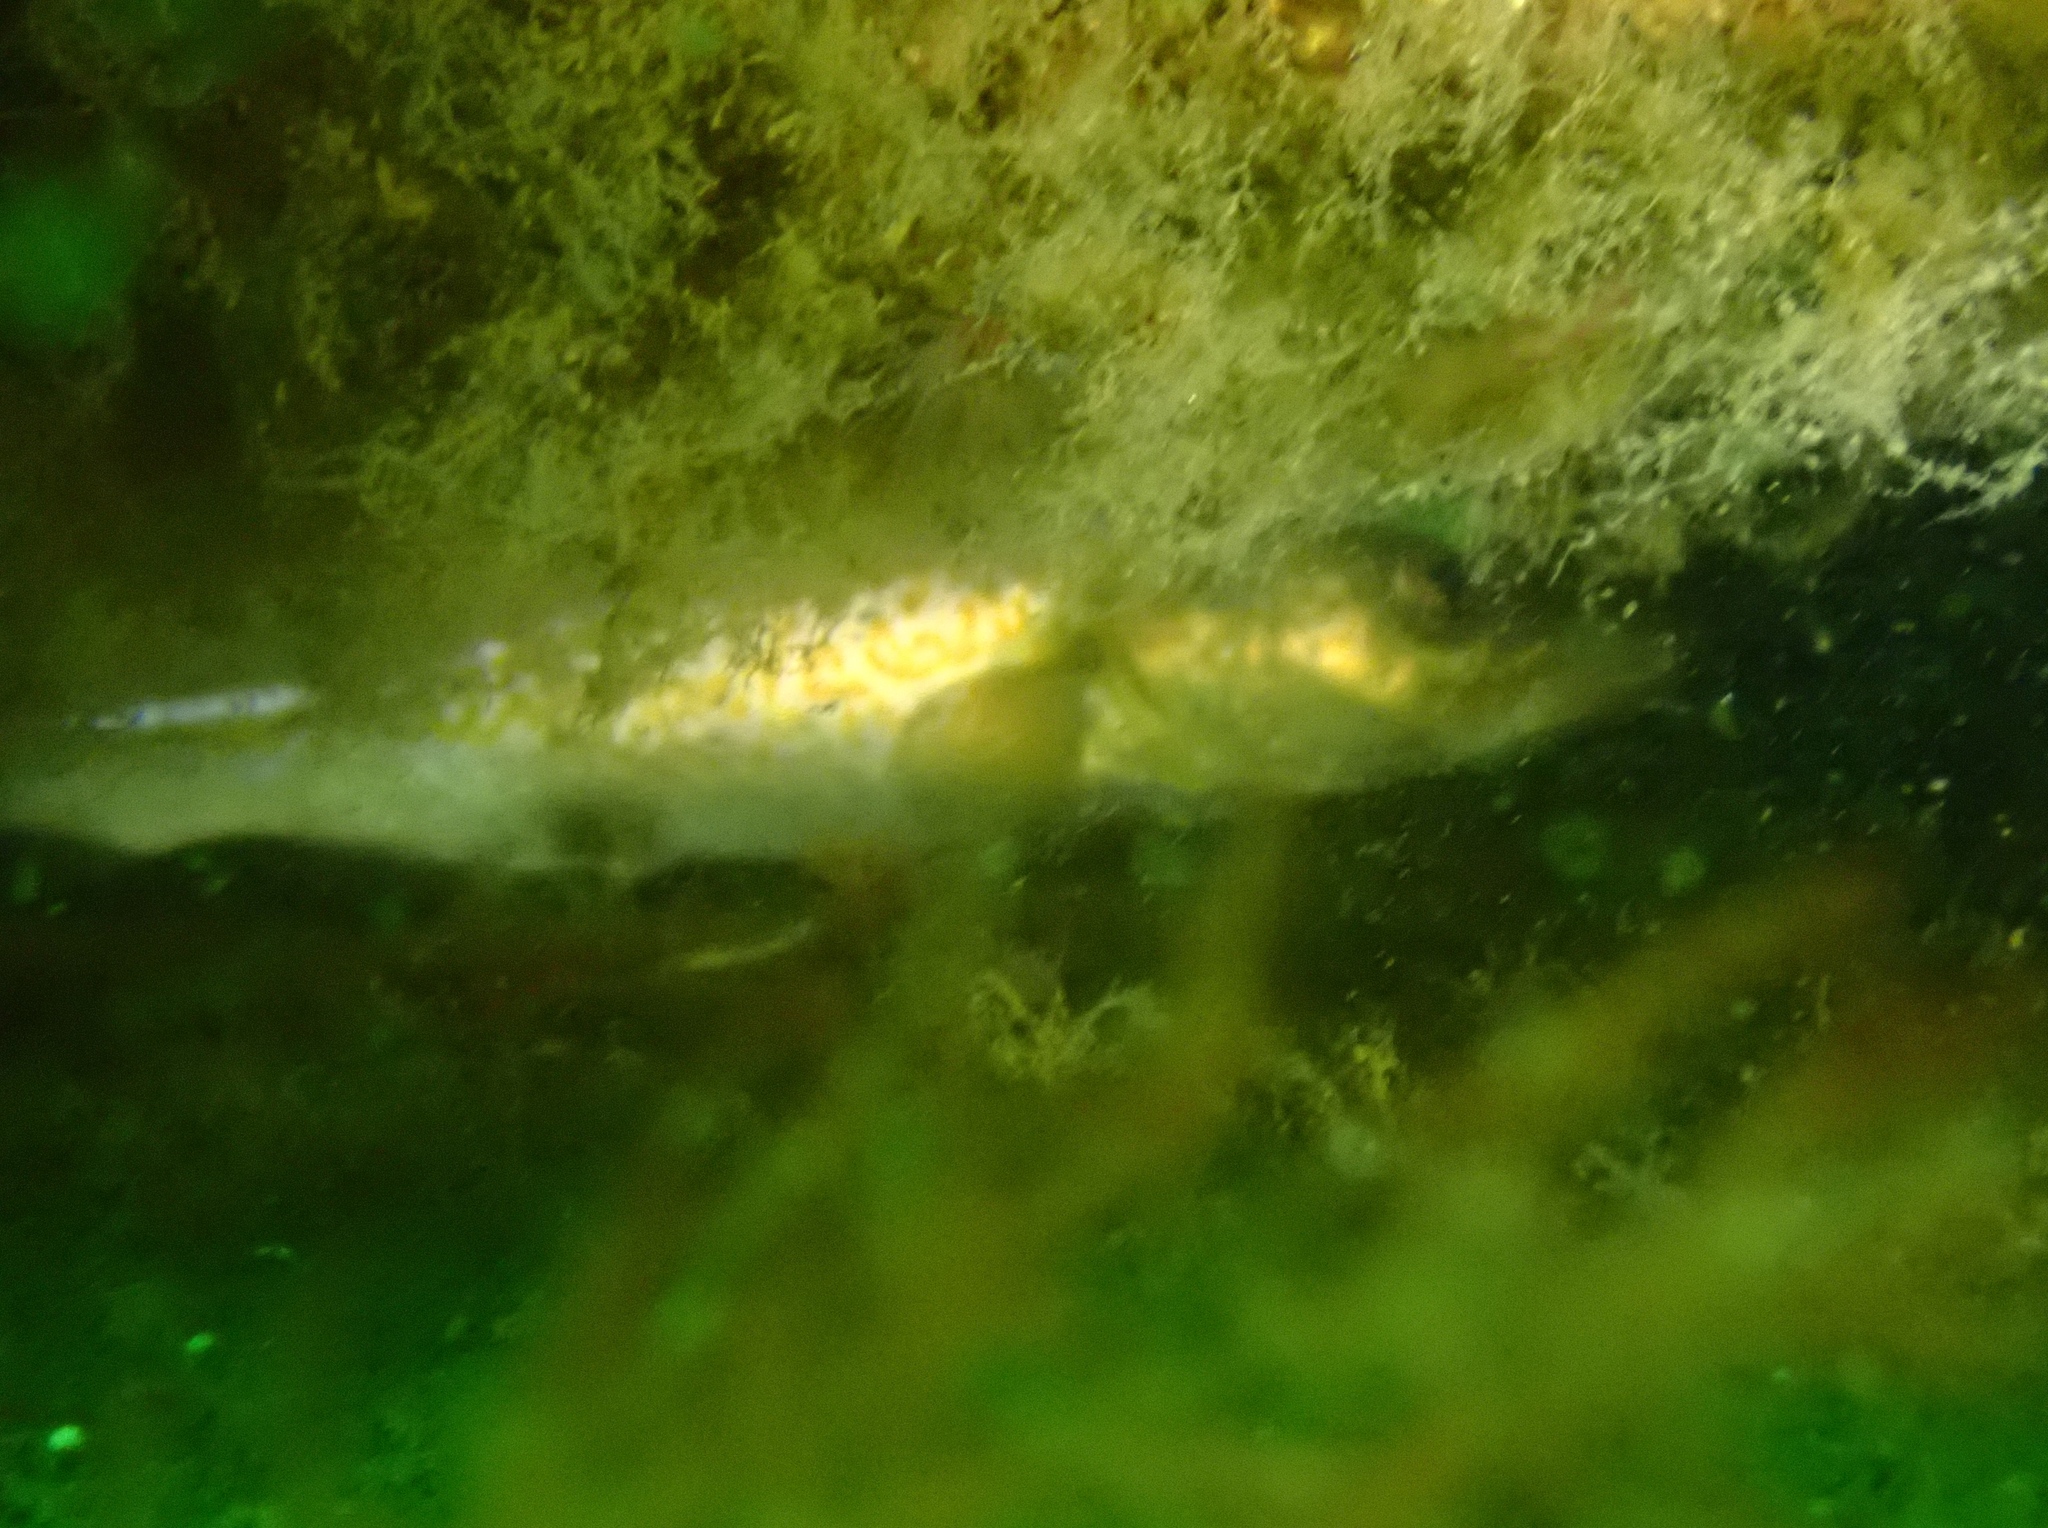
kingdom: Animalia
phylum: Chordata
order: Gadiformes
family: Gadidae
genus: Gadus
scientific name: Gadus morhua
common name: Atlantic cod
